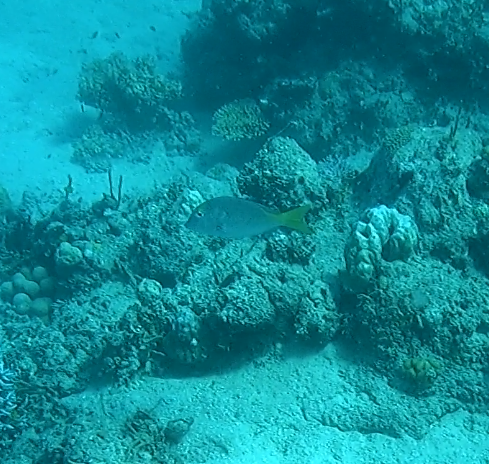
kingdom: Animalia
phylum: Chordata
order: Perciformes
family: Lethrinidae
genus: Lethrinus
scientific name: Lethrinus atkinsoni
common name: Pacific yellowtail emperor
